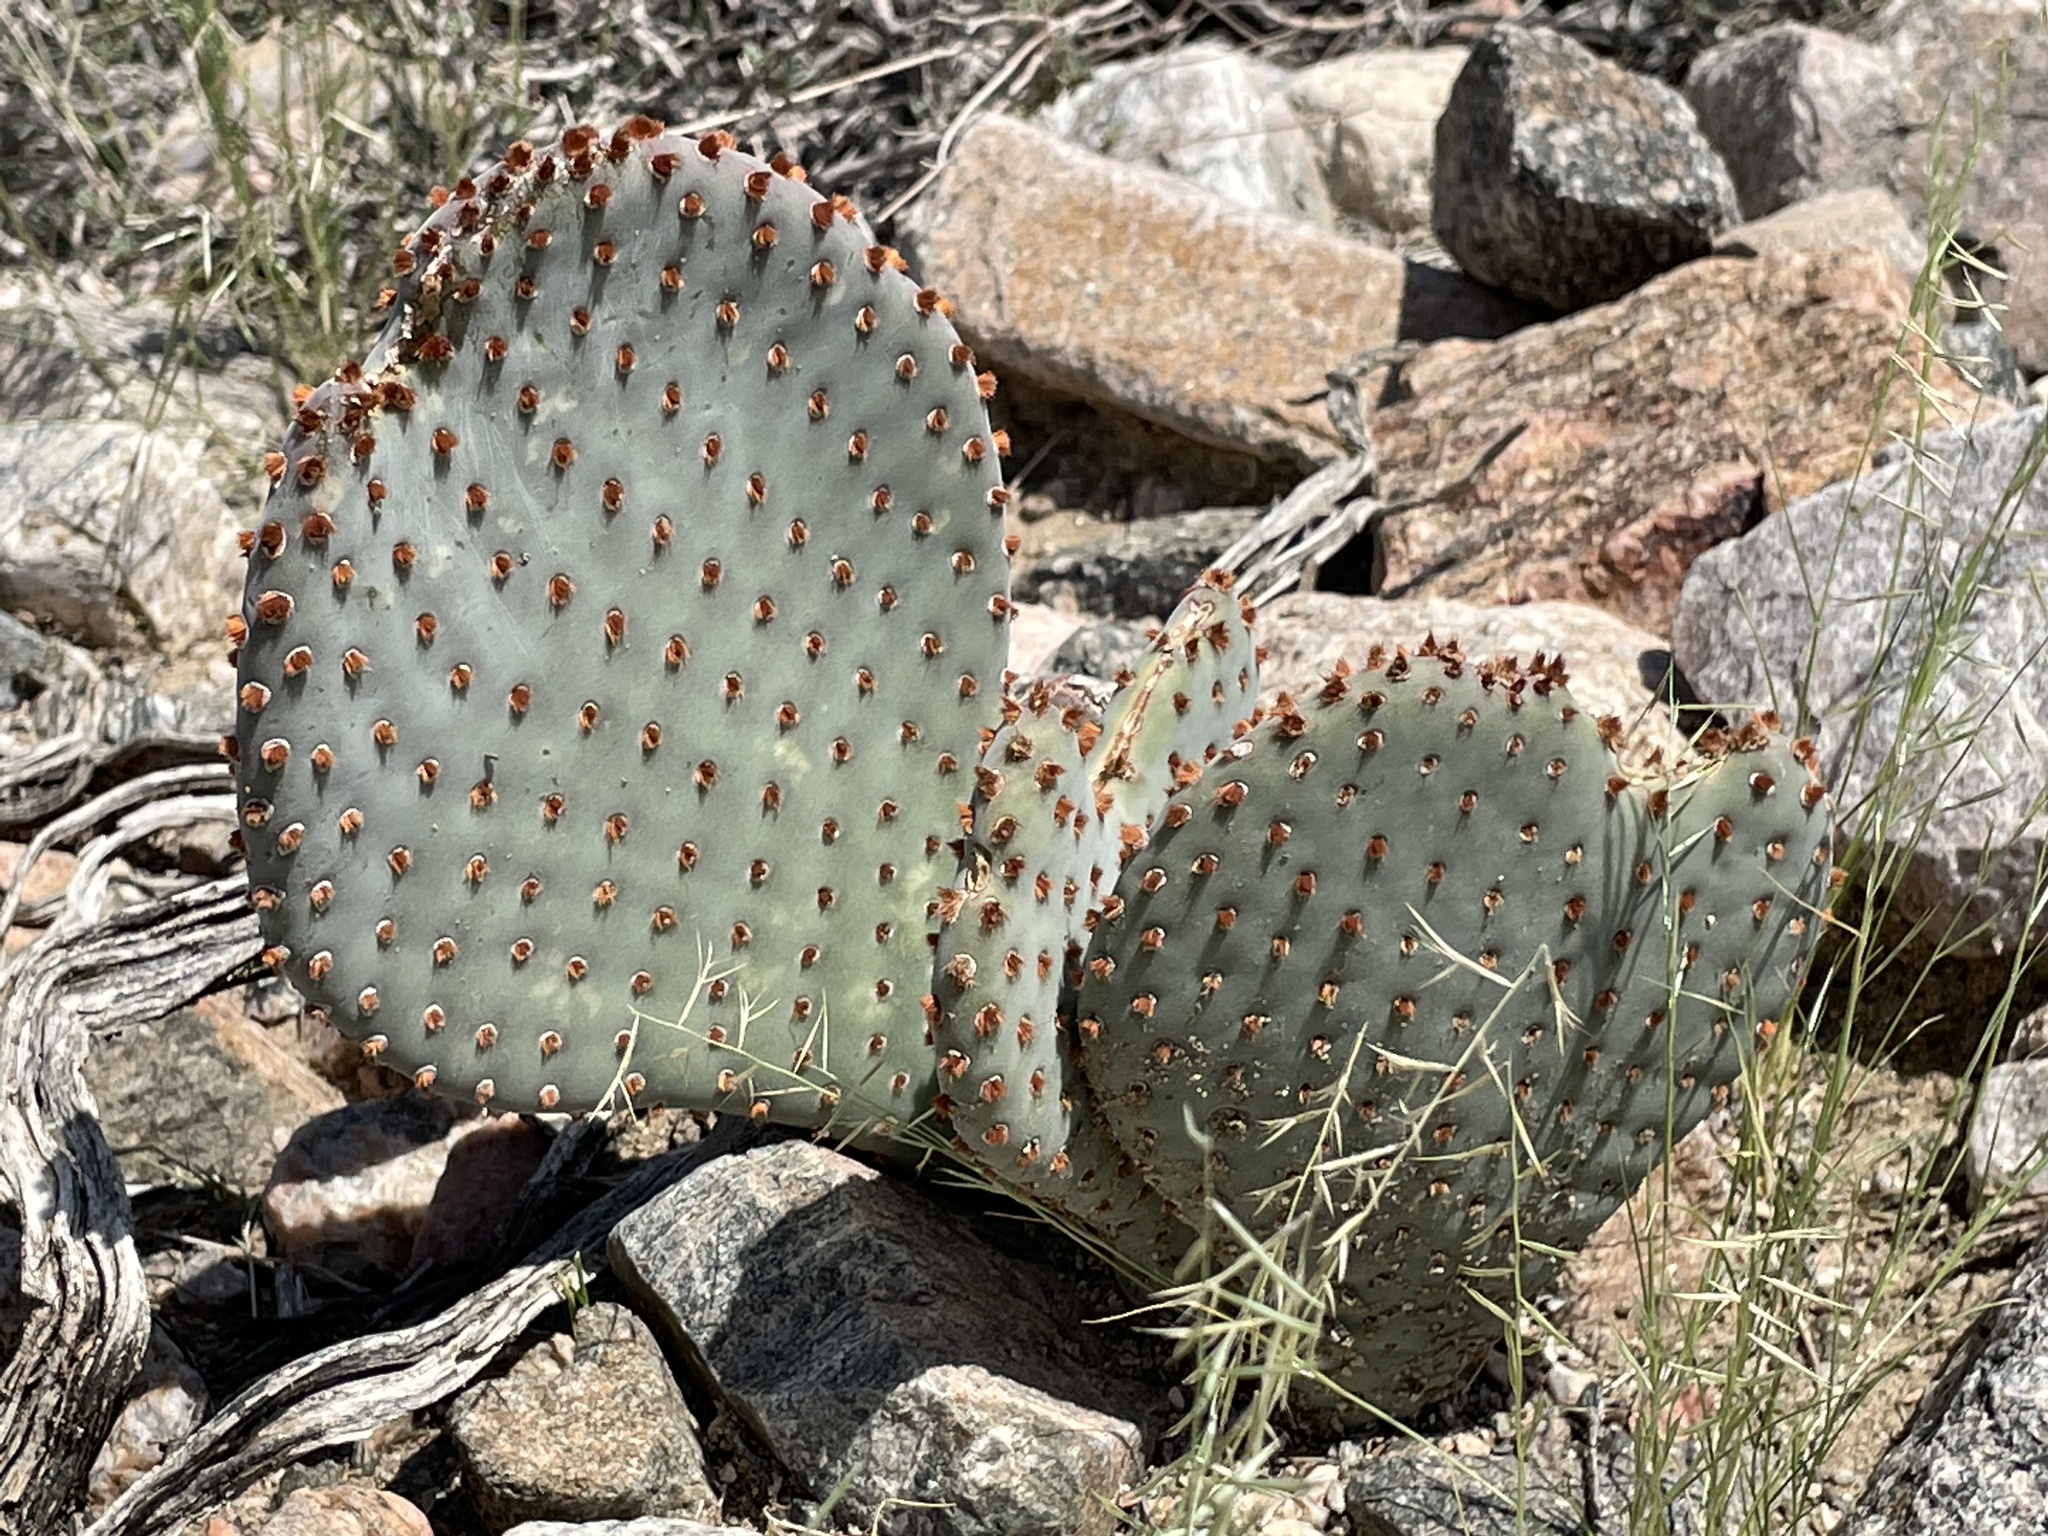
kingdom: Plantae
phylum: Tracheophyta
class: Magnoliopsida
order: Caryophyllales
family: Cactaceae
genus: Opuntia
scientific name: Opuntia basilaris
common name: Beavertail prickly-pear
